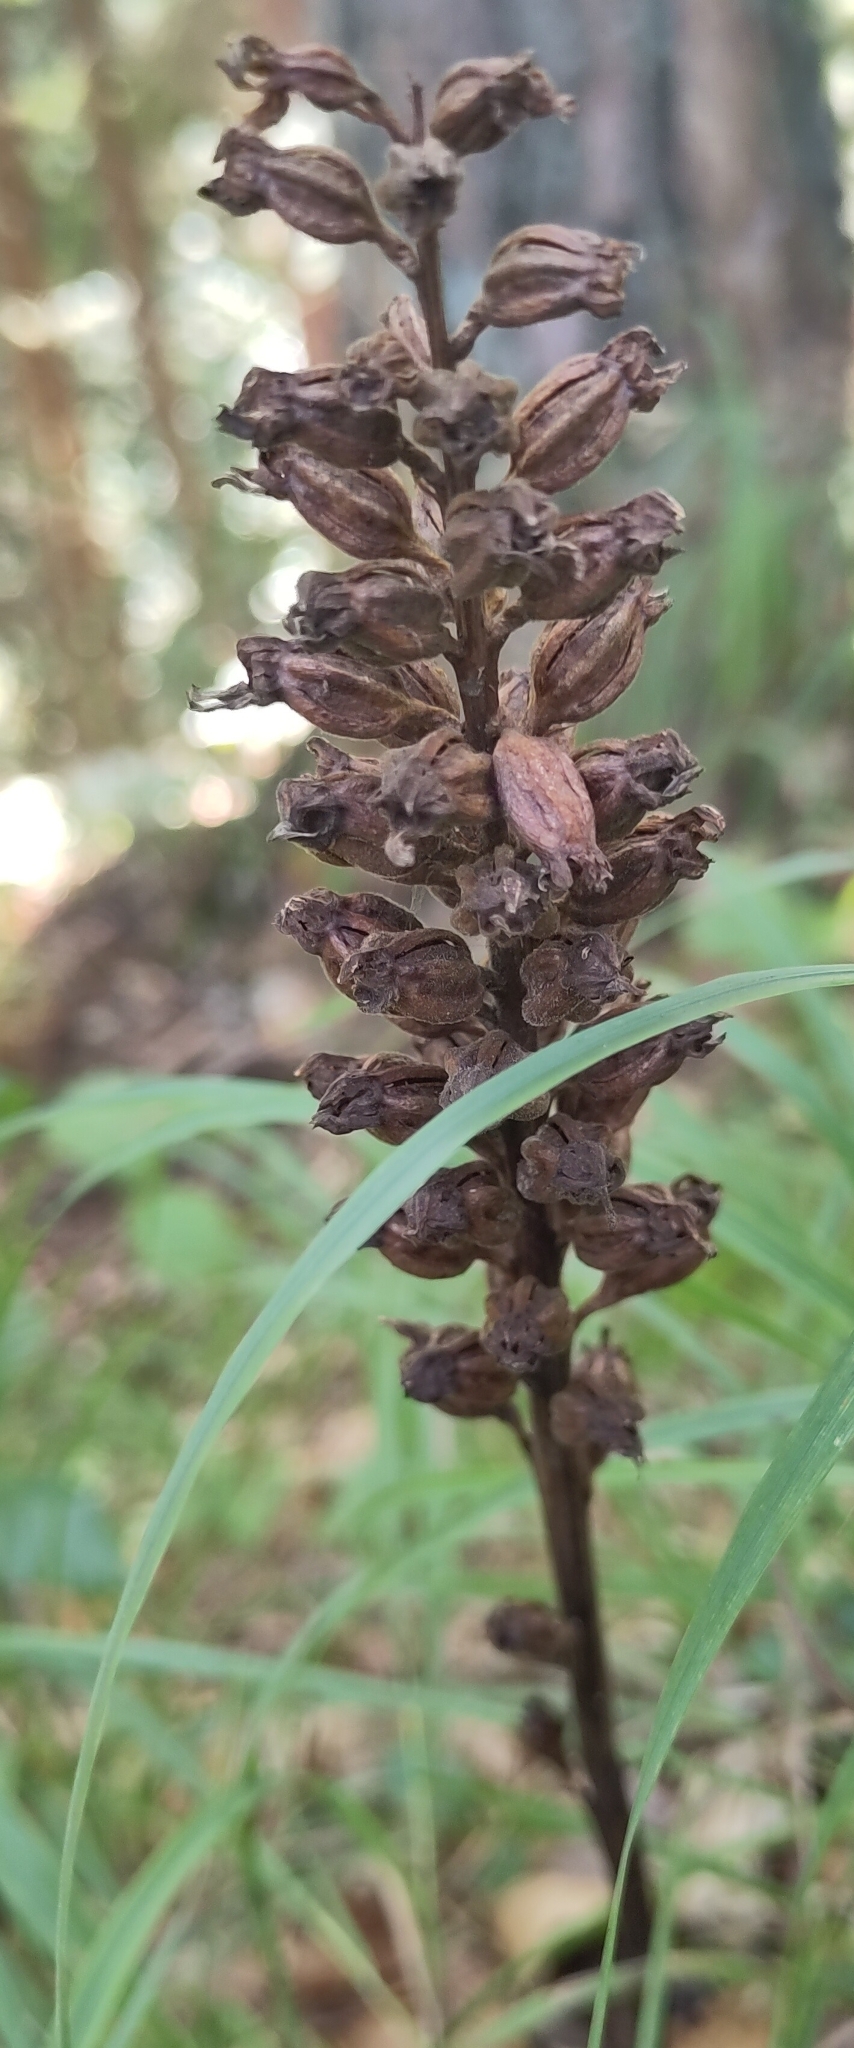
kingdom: Plantae
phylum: Tracheophyta
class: Liliopsida
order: Asparagales
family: Orchidaceae
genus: Neottia
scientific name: Neottia nidus-avis
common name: Bird's-nest orchid
